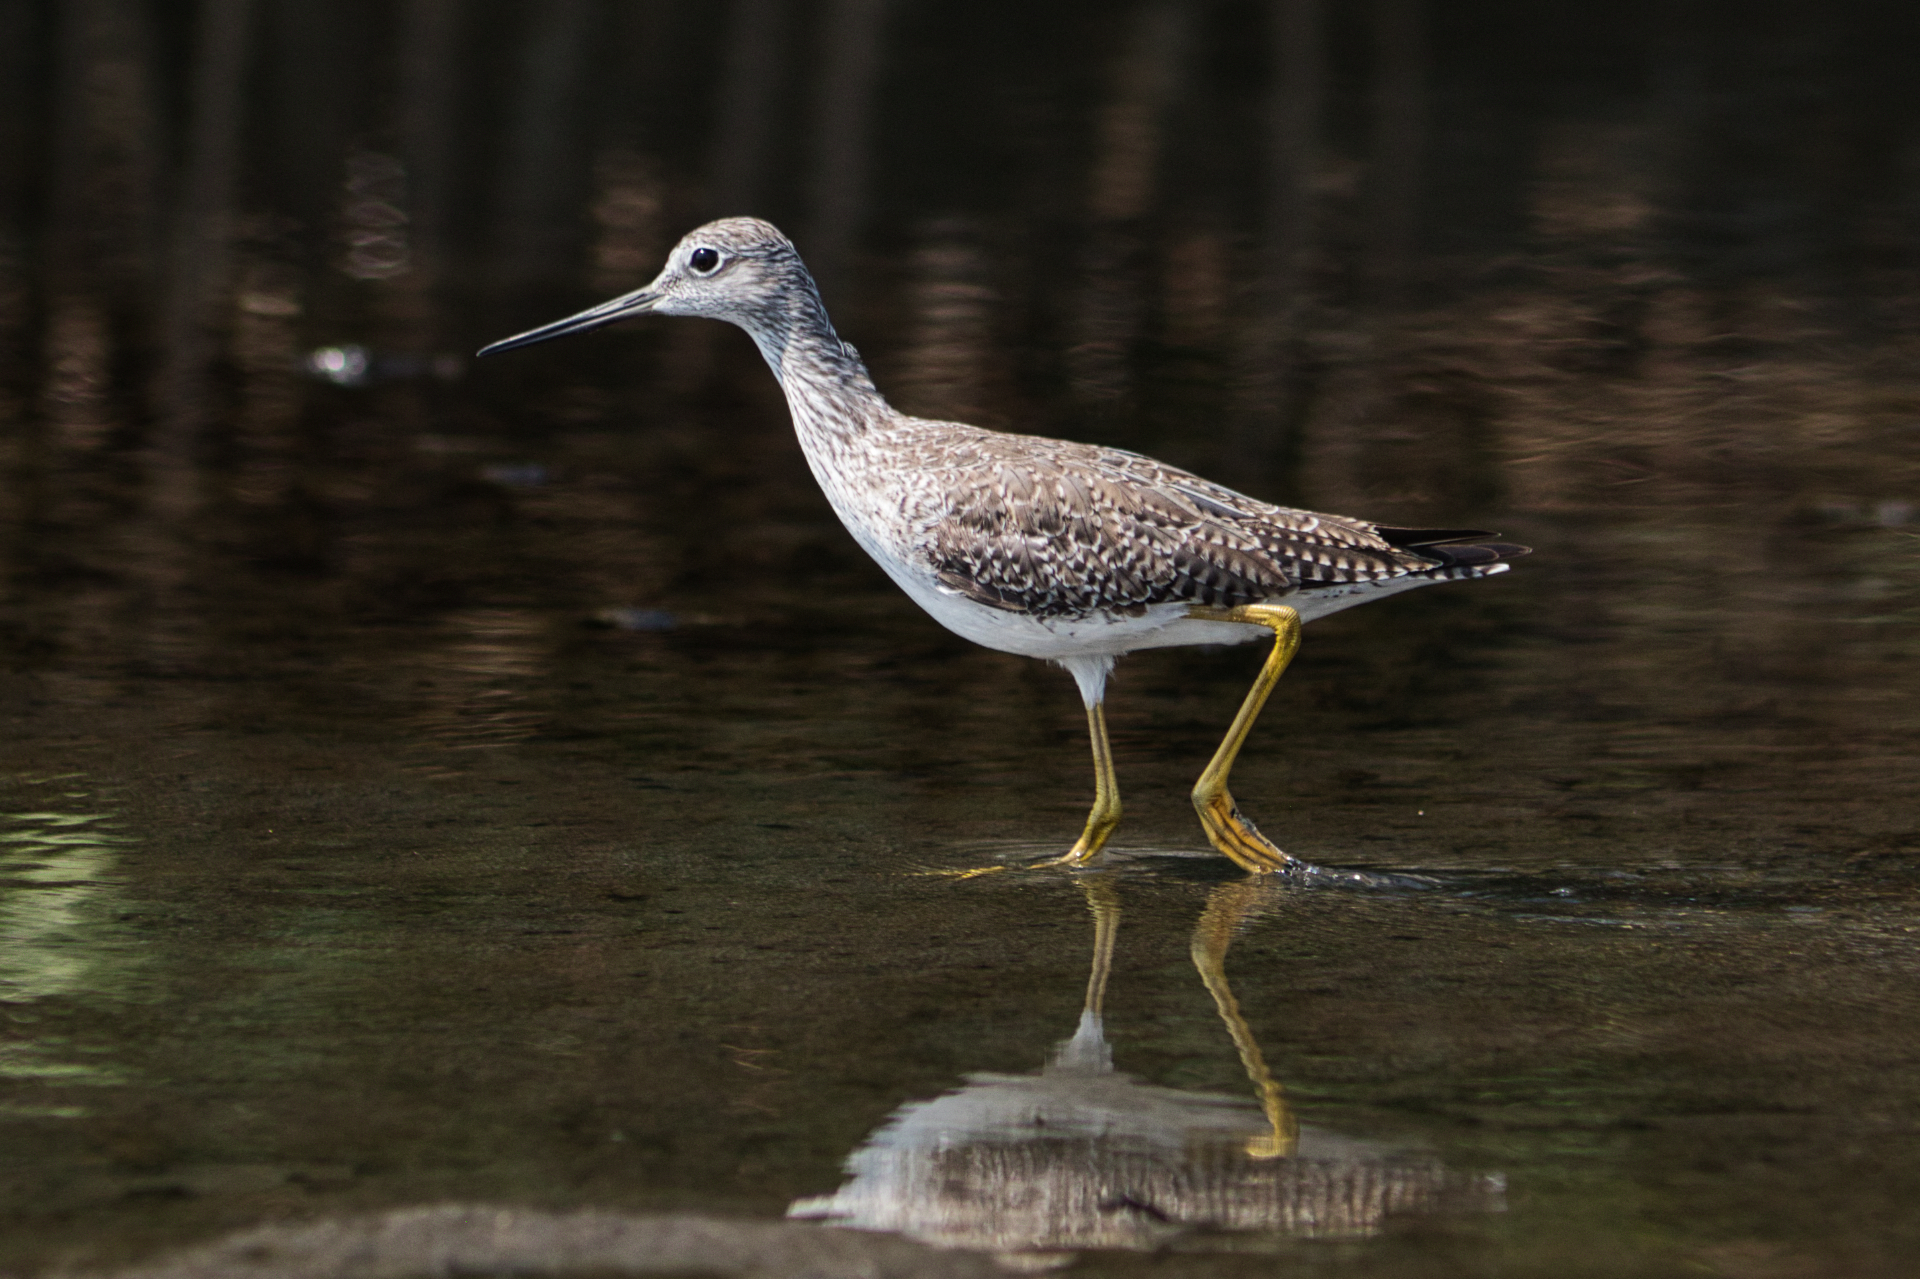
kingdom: Animalia
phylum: Chordata
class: Aves
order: Charadriiformes
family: Scolopacidae
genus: Tringa
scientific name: Tringa melanoleuca
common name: Greater yellowlegs
